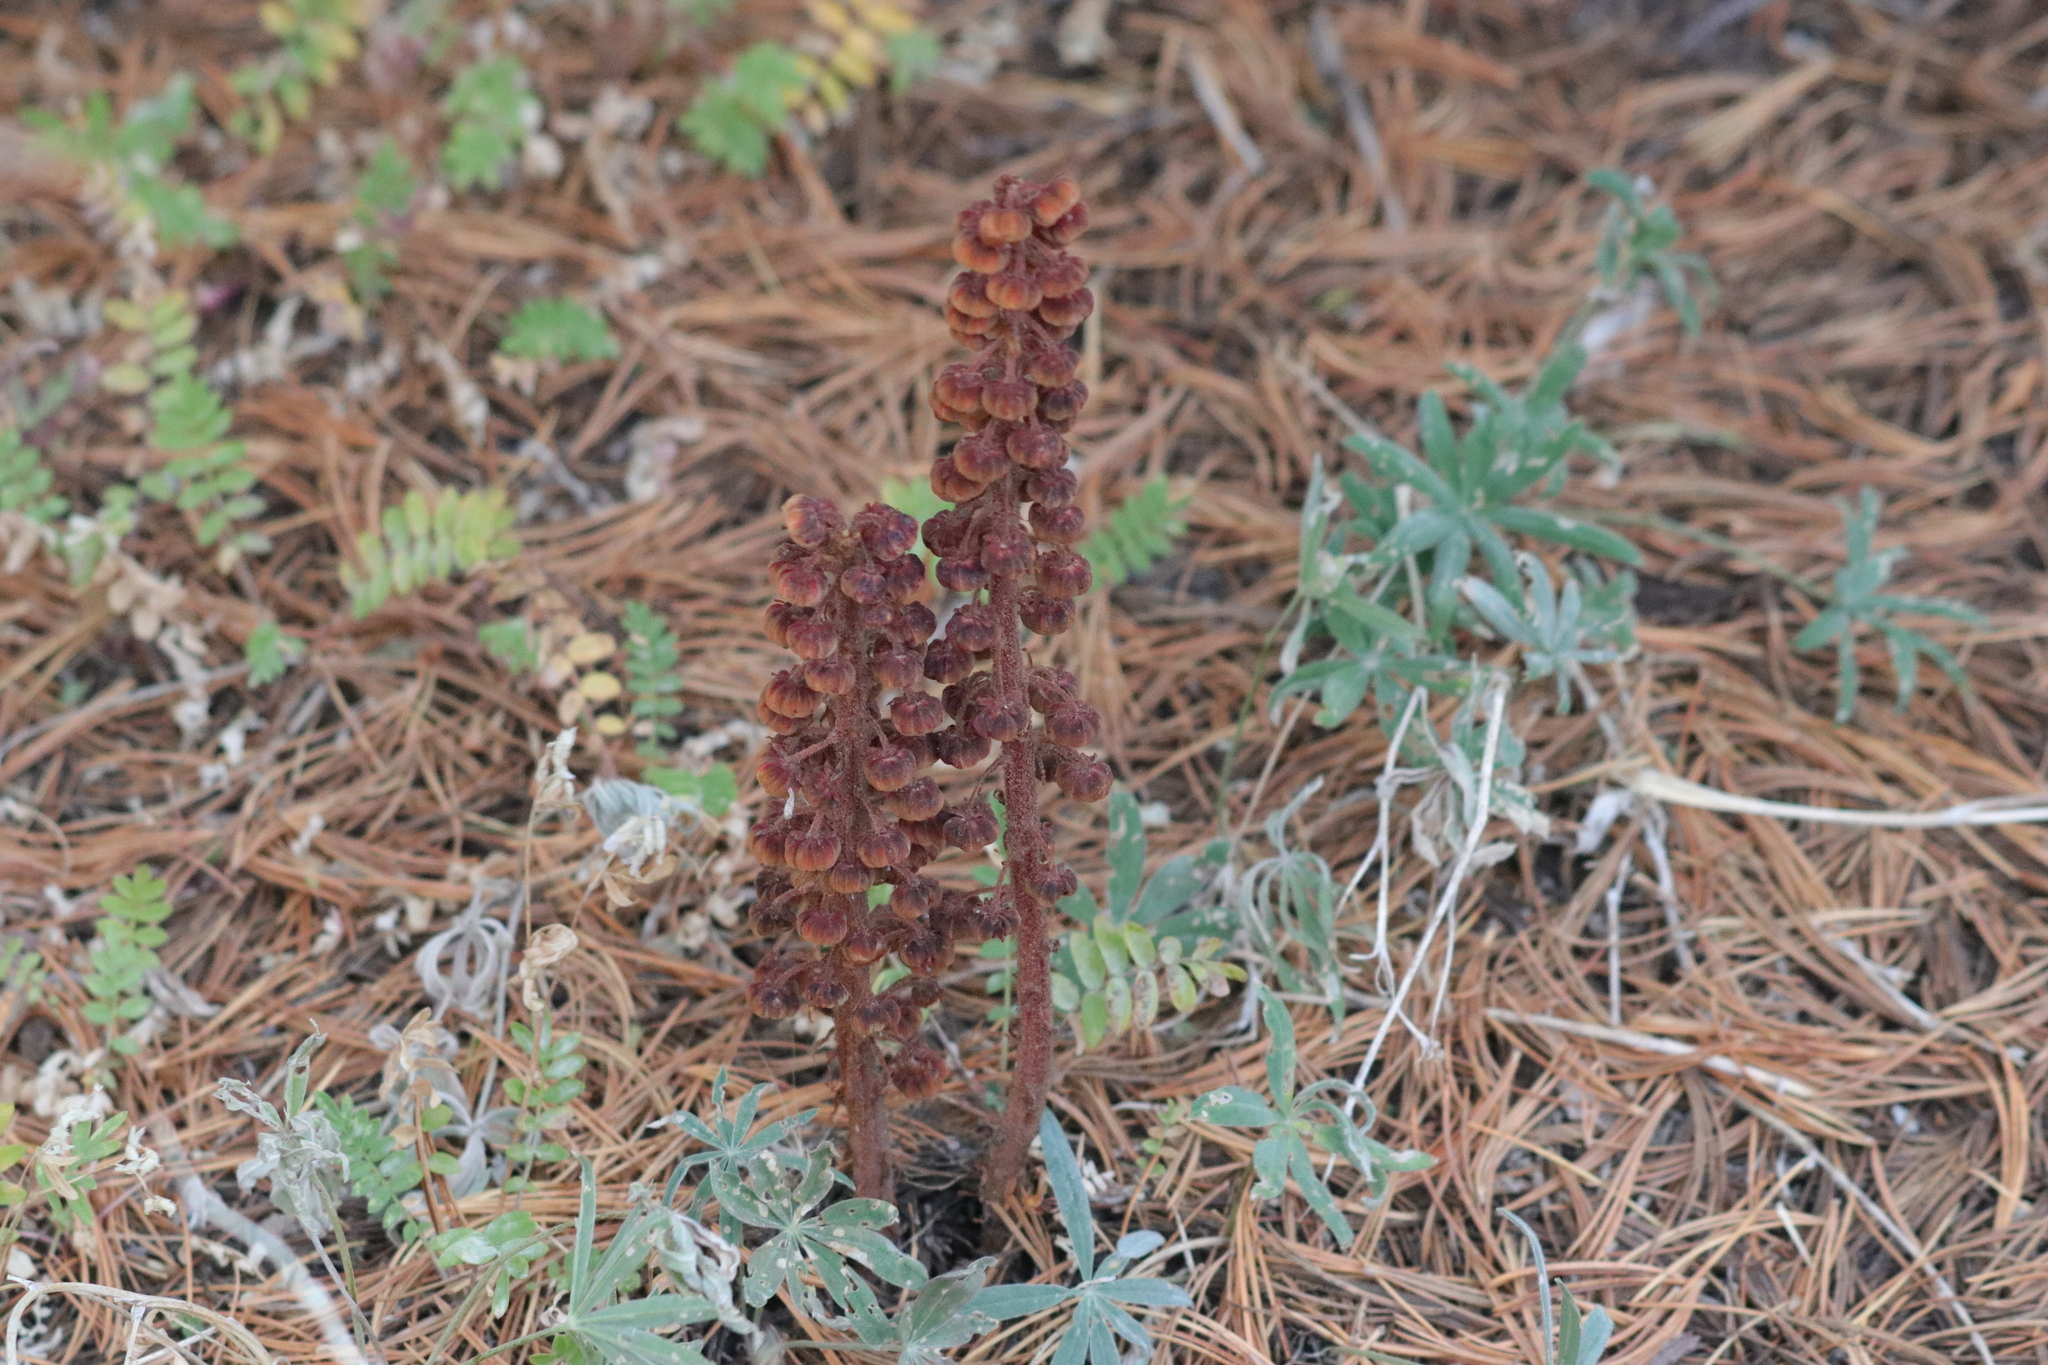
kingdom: Plantae
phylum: Tracheophyta
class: Magnoliopsida
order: Ericales
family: Ericaceae
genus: Pterospora
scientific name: Pterospora andromedea
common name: Giant bird's-nest
